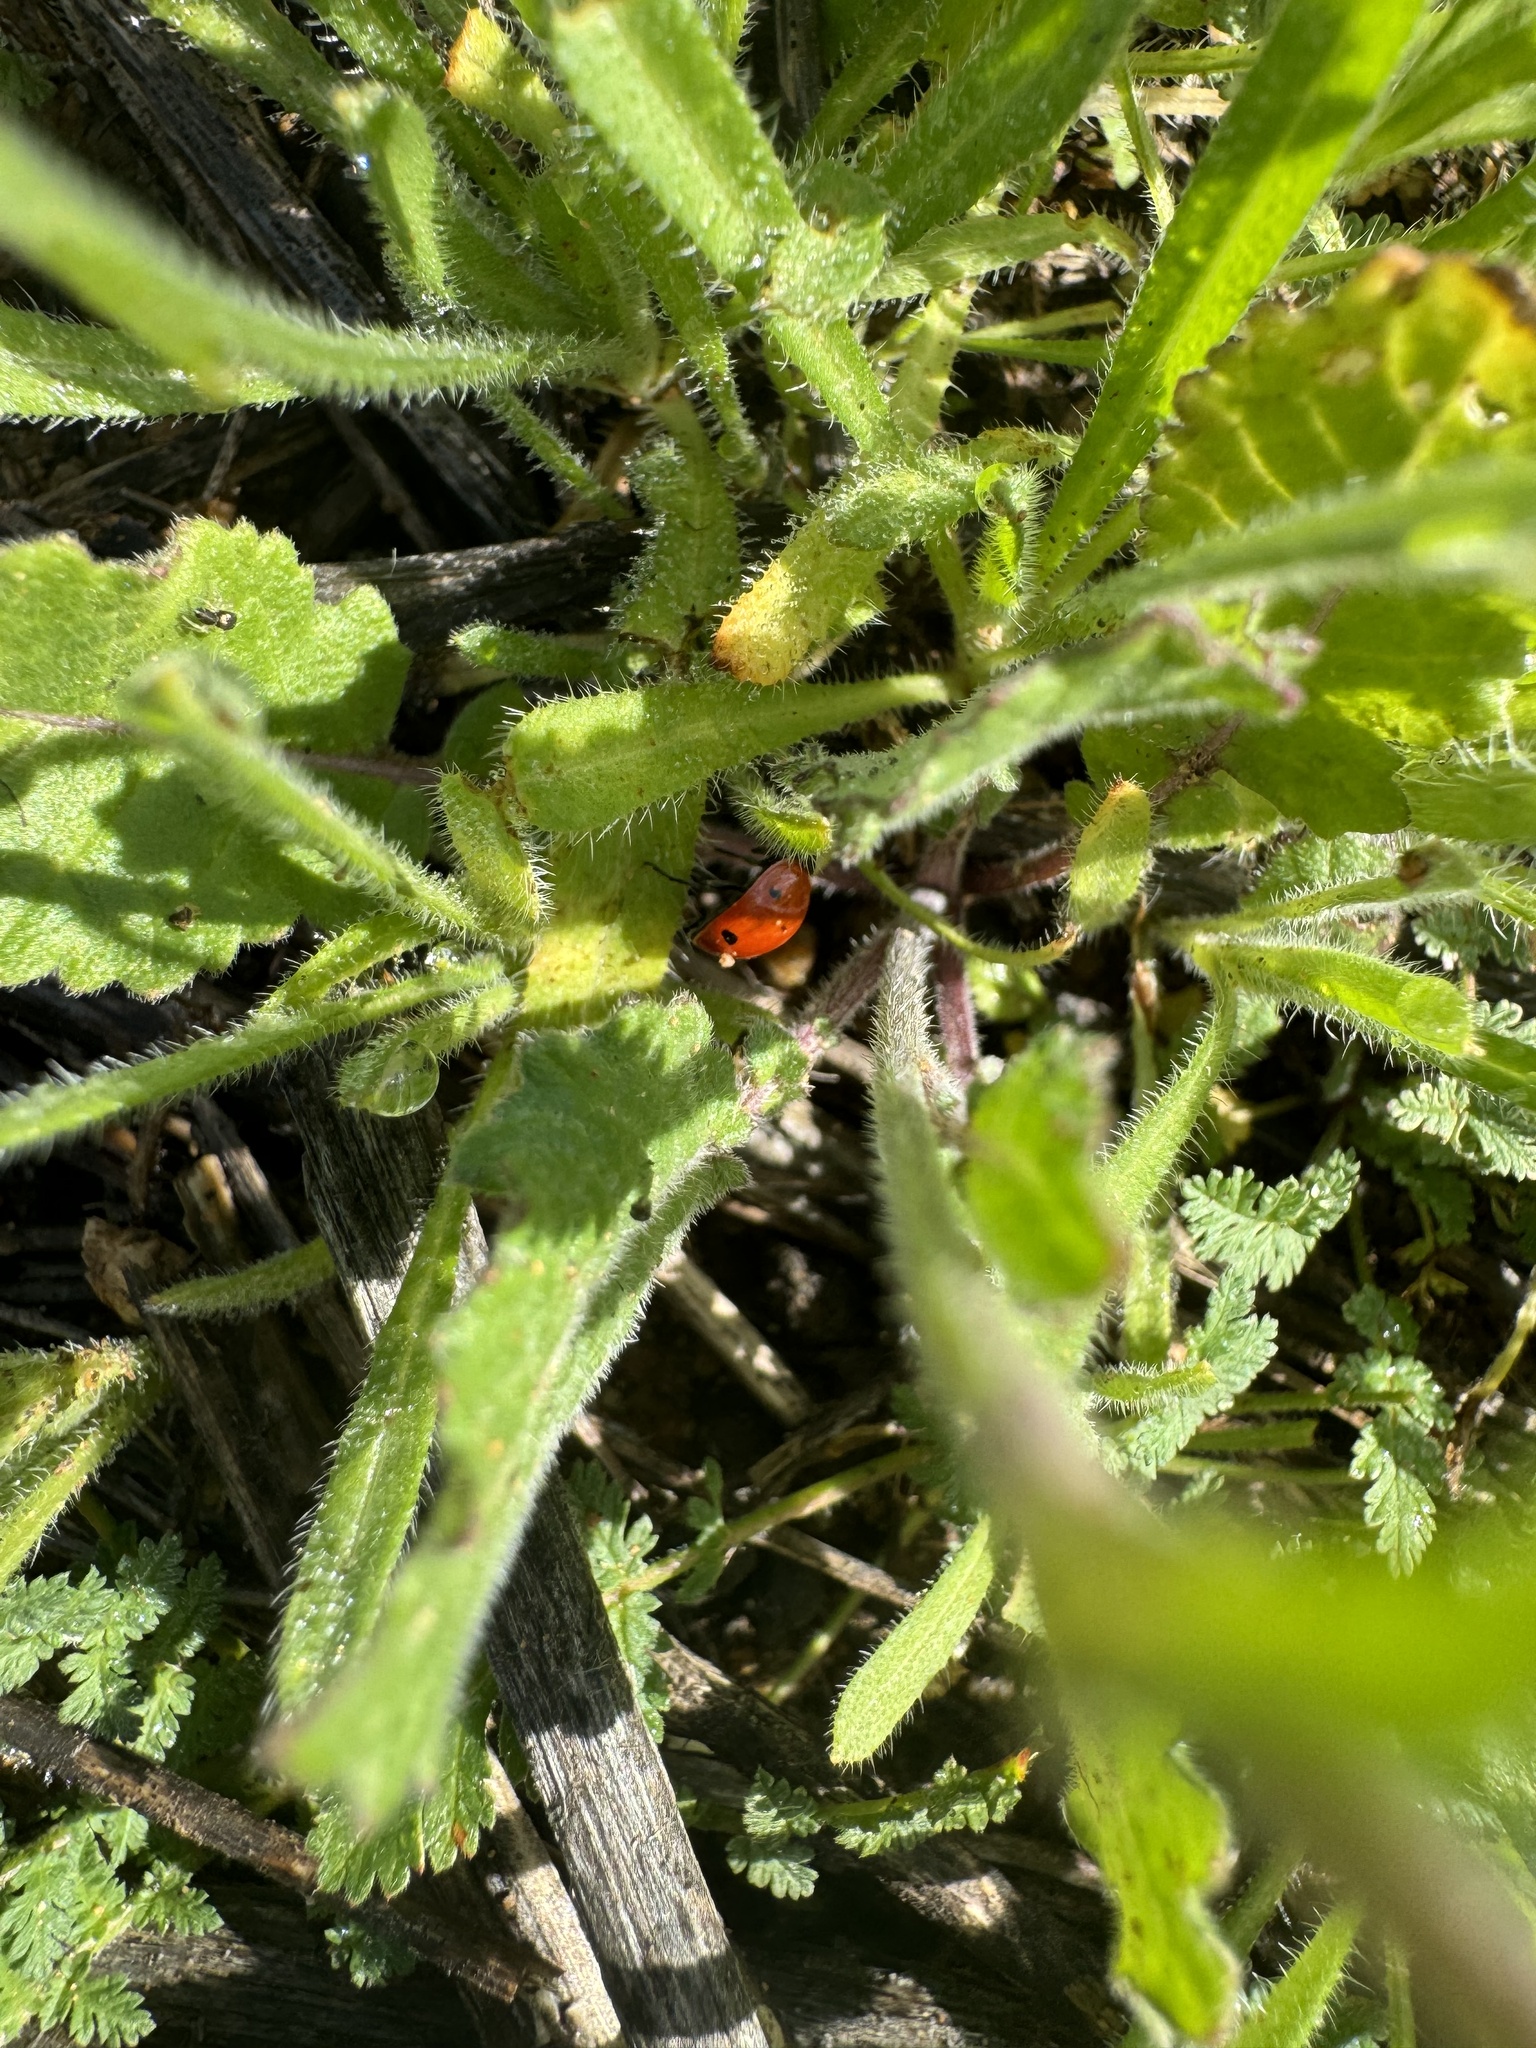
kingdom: Animalia
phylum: Arthropoda
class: Insecta
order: Coleoptera
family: Coccinellidae
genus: Coccinella
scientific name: Coccinella septempunctata
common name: Sevenspotted lady beetle
